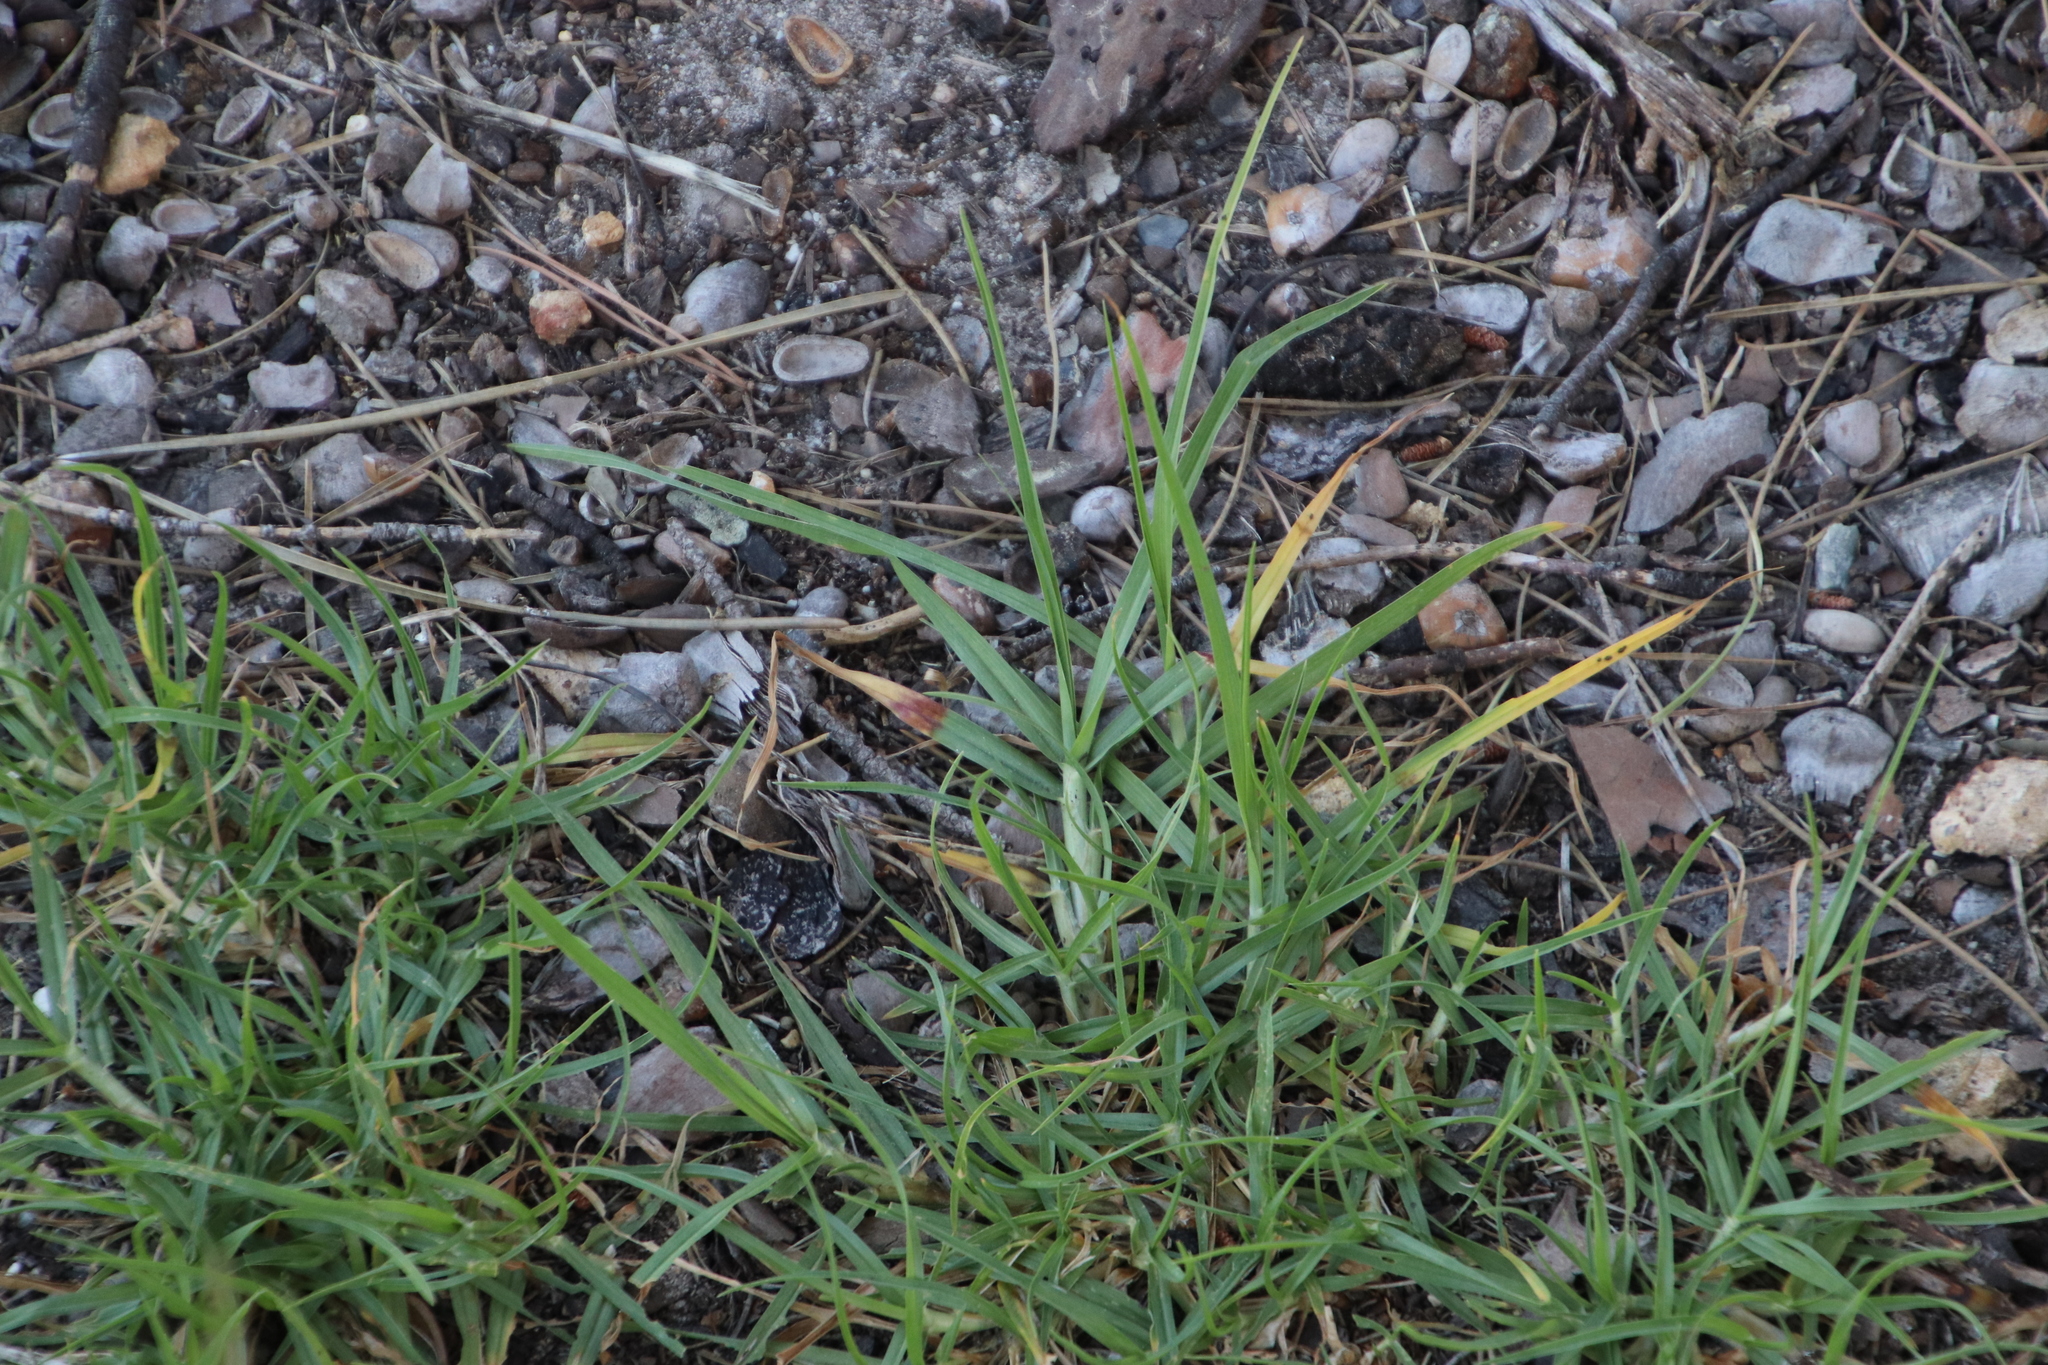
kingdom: Plantae
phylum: Tracheophyta
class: Liliopsida
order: Poales
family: Poaceae
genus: Cenchrus
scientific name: Cenchrus clandestinus
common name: Kikuyugrass
